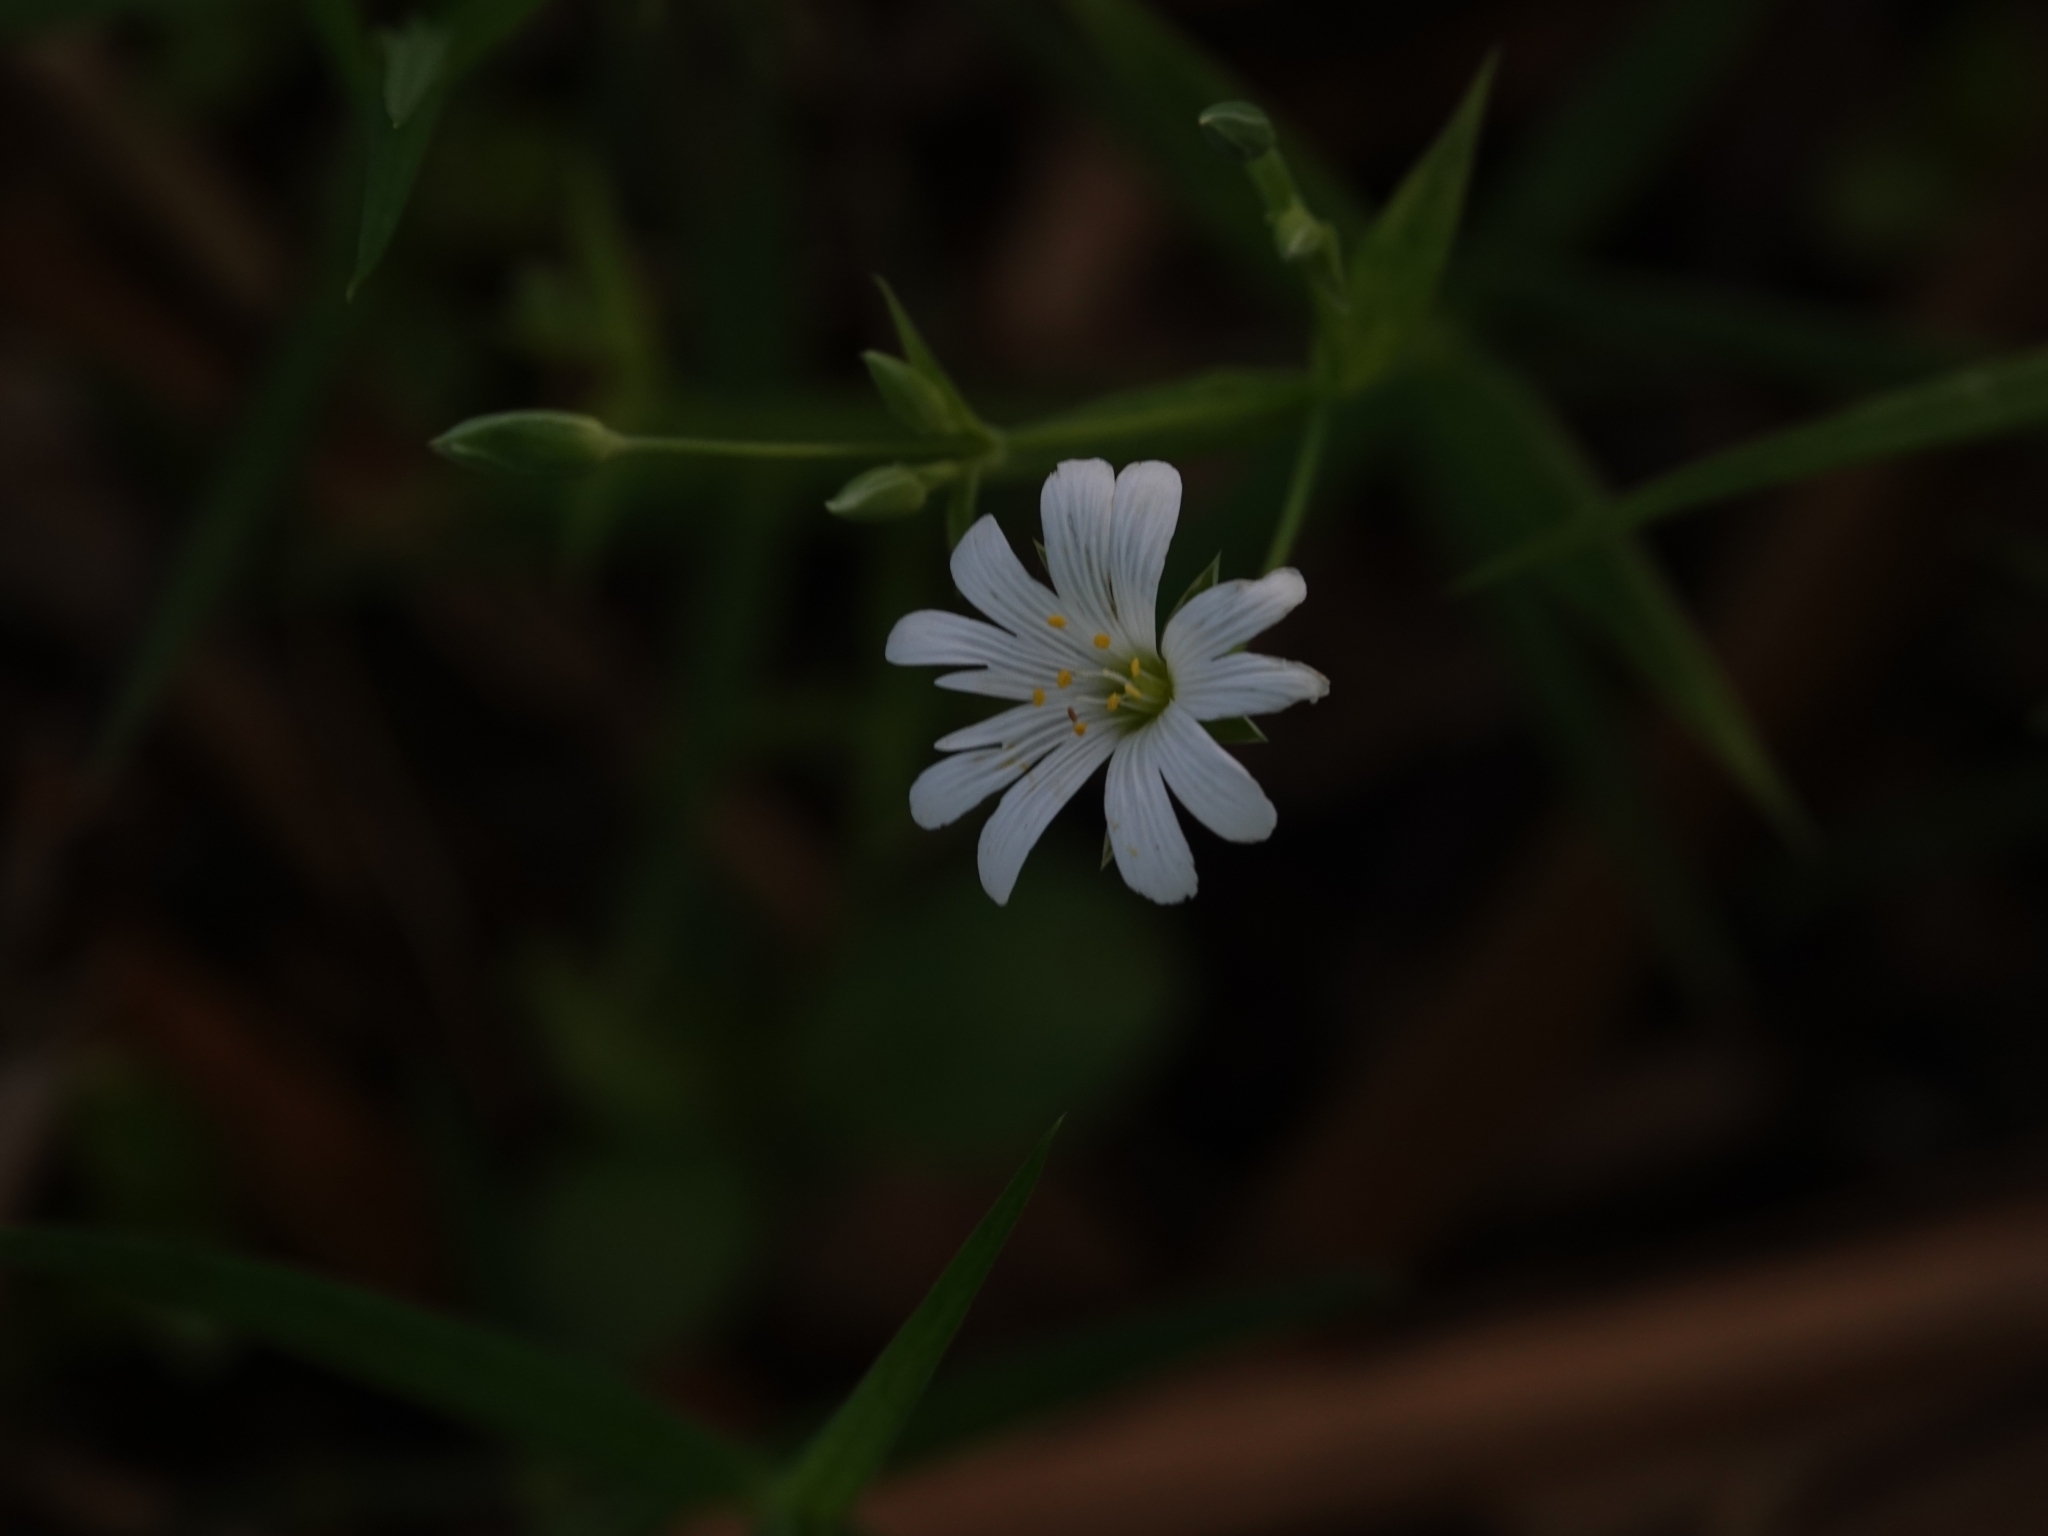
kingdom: Plantae
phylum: Tracheophyta
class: Magnoliopsida
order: Caryophyllales
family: Caryophyllaceae
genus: Rabelera
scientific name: Rabelera holostea
